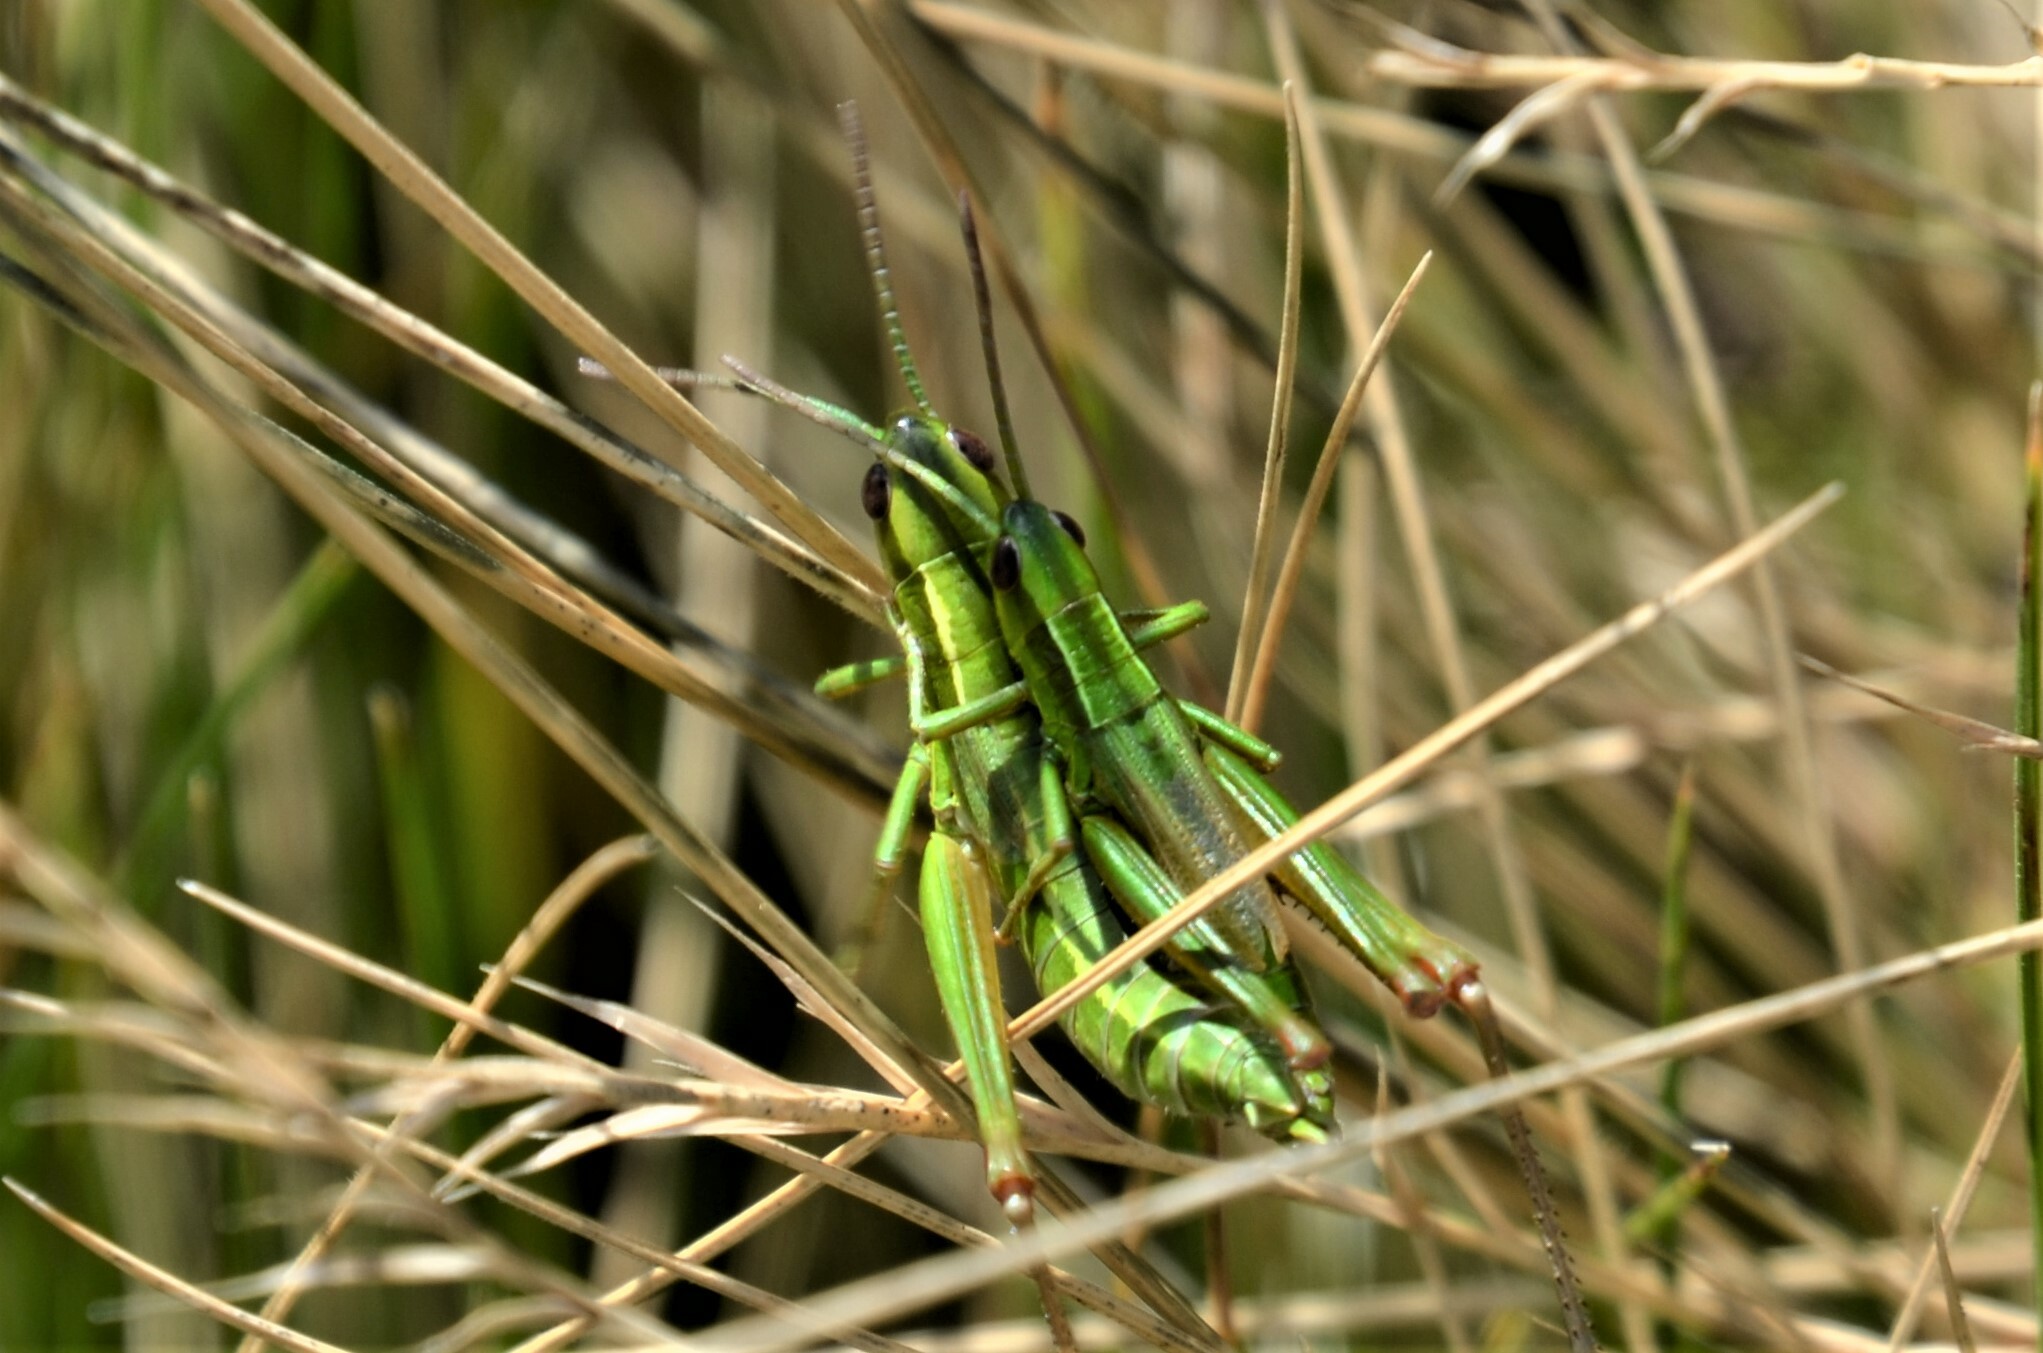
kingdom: Animalia
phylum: Arthropoda
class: Insecta
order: Orthoptera
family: Acrididae
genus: Euthystira
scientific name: Euthystira brachyptera
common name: Small gold grasshopper
